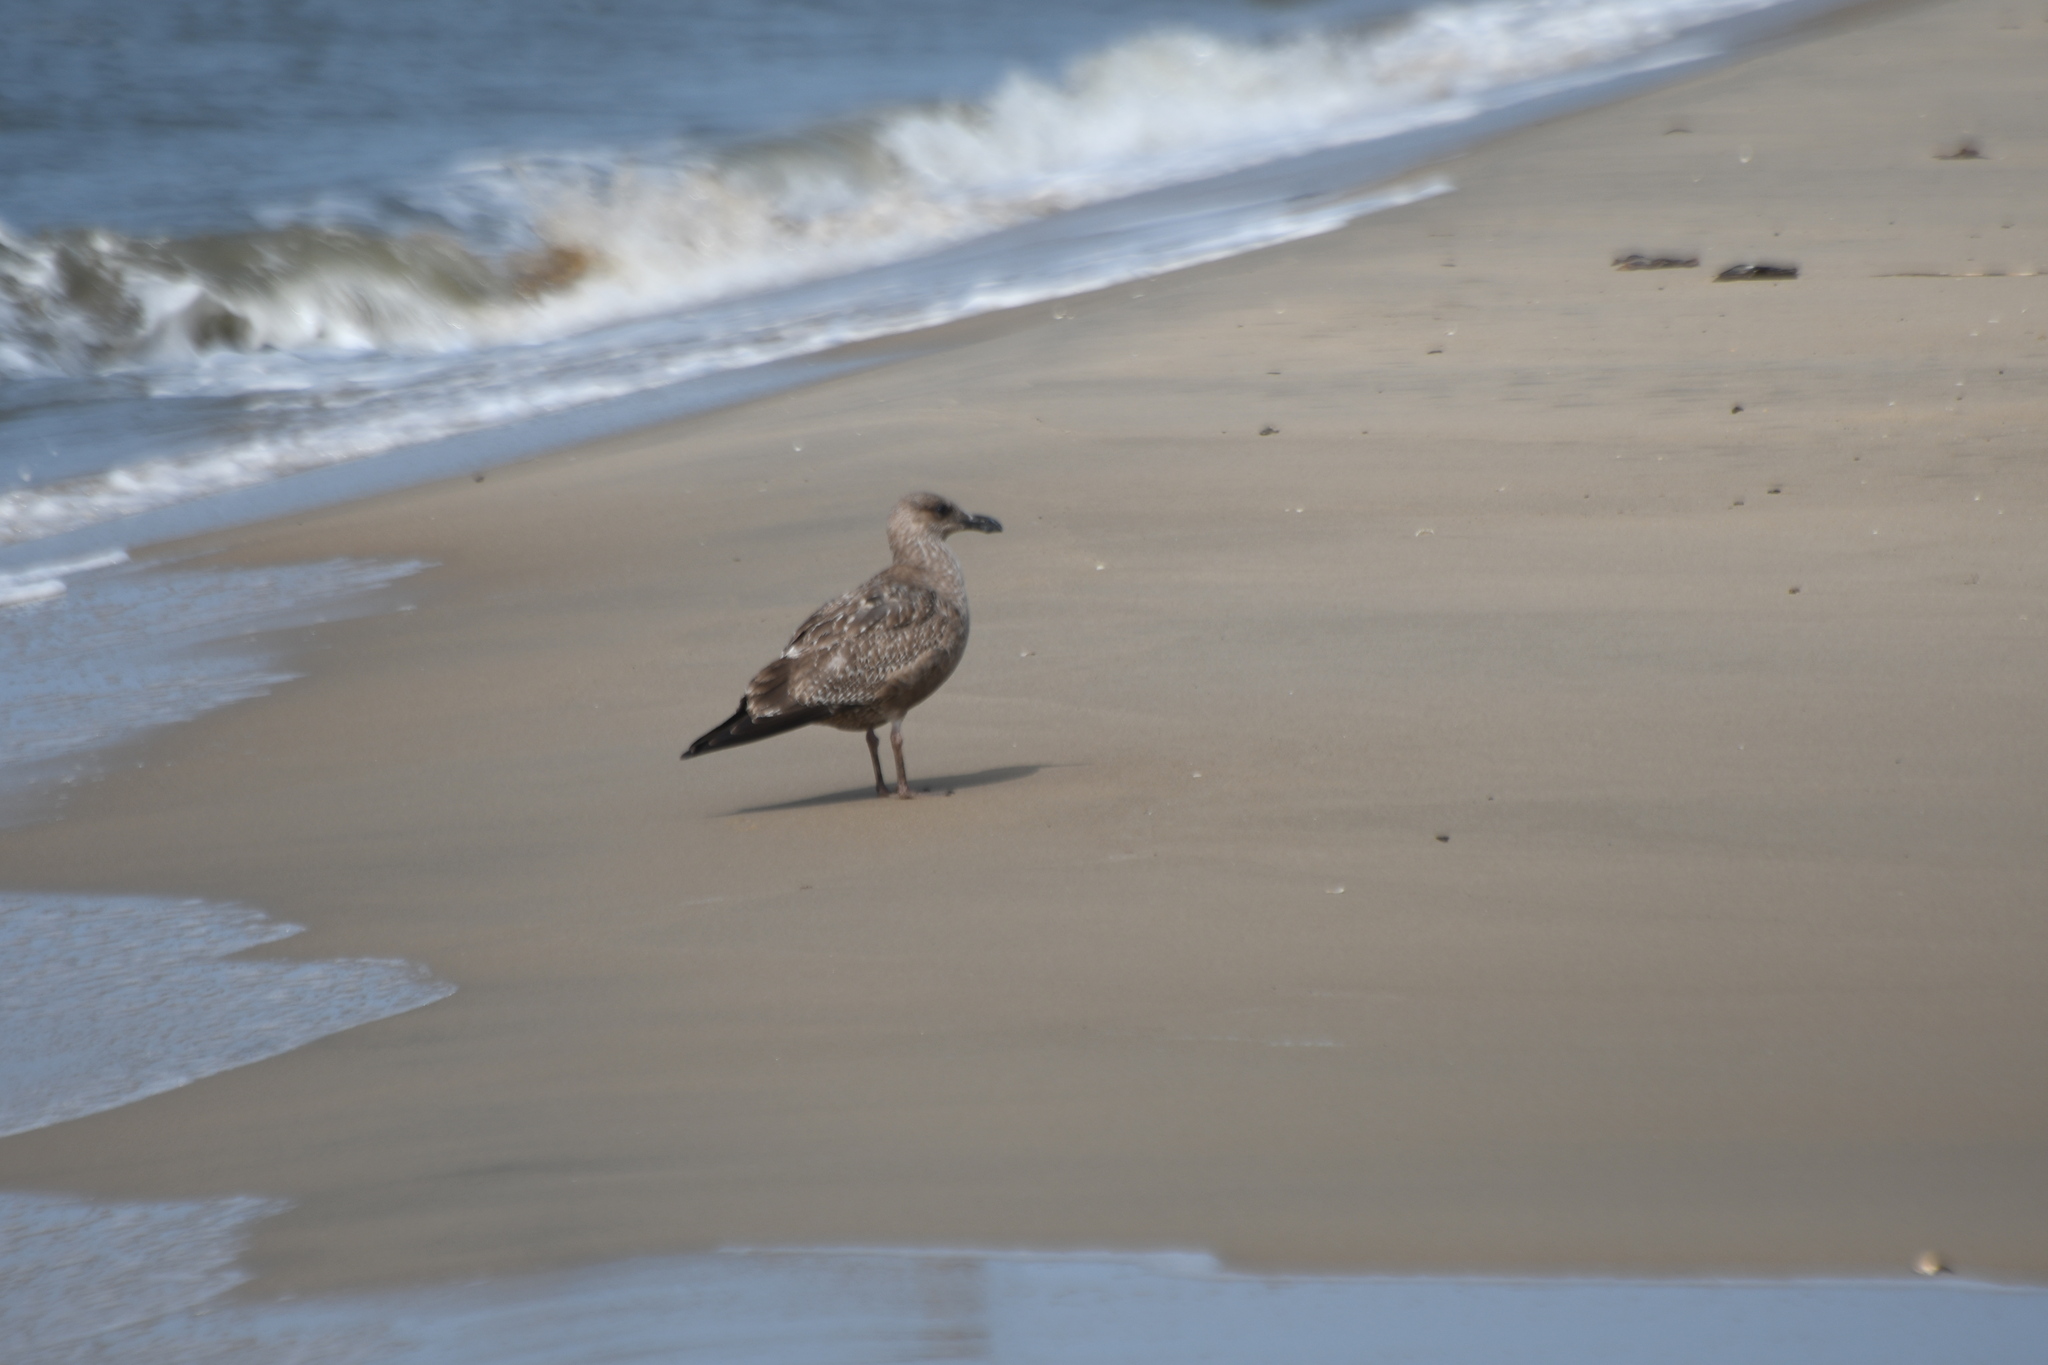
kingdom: Animalia
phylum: Chordata
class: Aves
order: Charadriiformes
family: Laridae
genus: Larus
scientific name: Larus marinus
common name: Great black-backed gull
